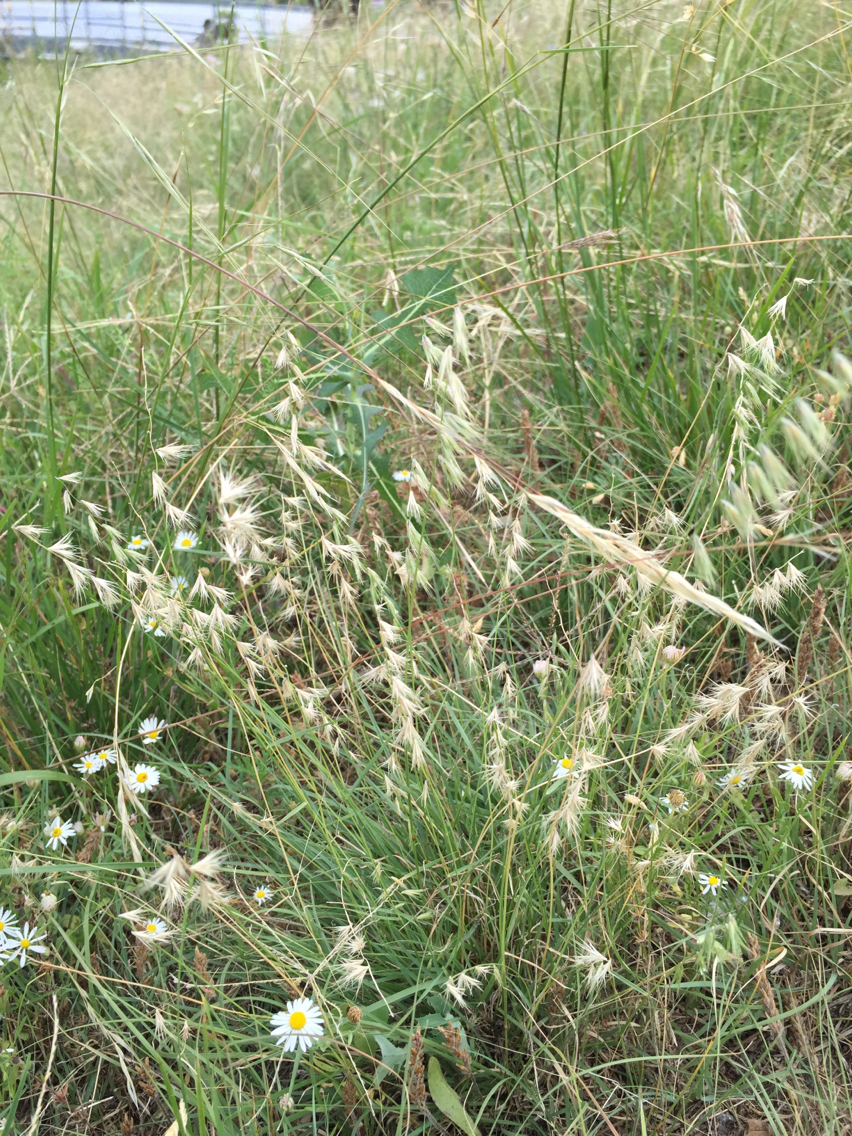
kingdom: Plantae
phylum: Tracheophyta
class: Liliopsida
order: Poales
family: Poaceae
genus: Bouteloua
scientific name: Bouteloua rigidiseta
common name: Texas grama
